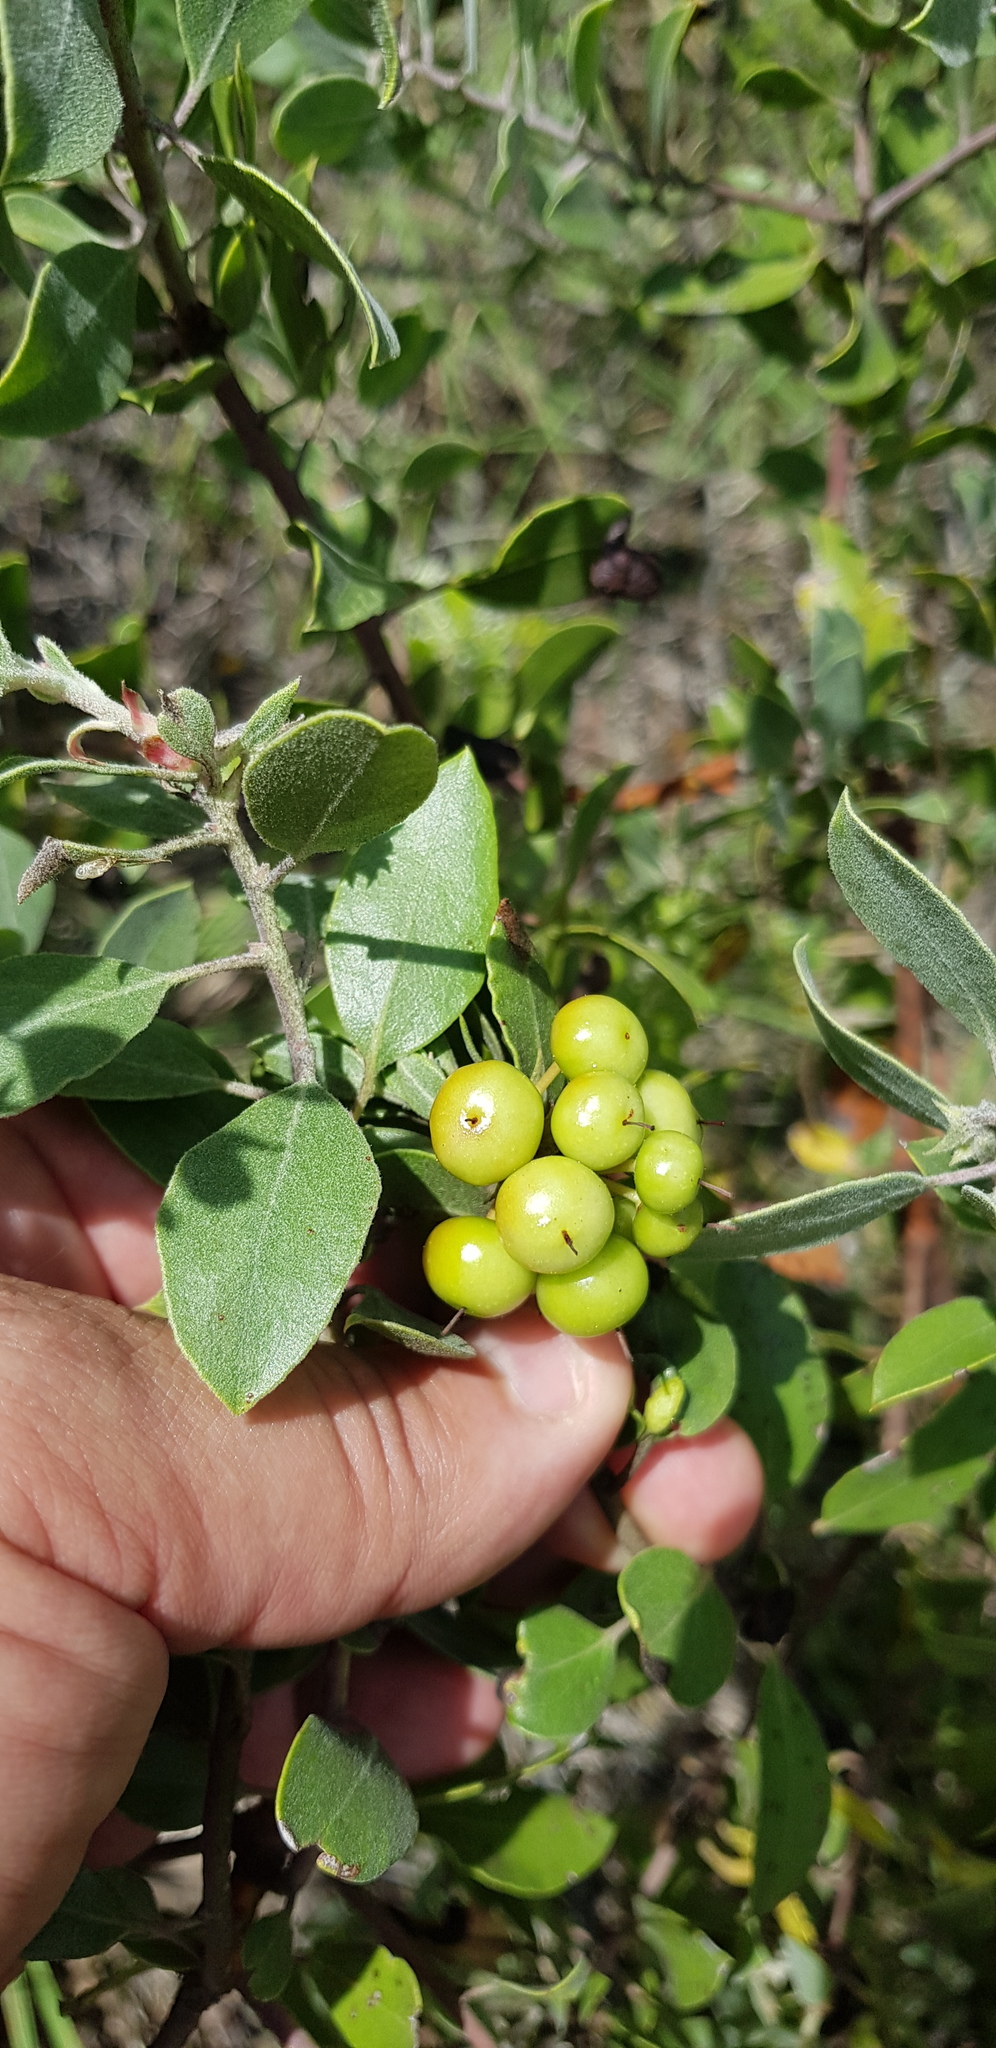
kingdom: Plantae
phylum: Tracheophyta
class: Magnoliopsida
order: Ericales
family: Ericaceae
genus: Arctostaphylos
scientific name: Arctostaphylos pungens
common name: Mexican manzanita
